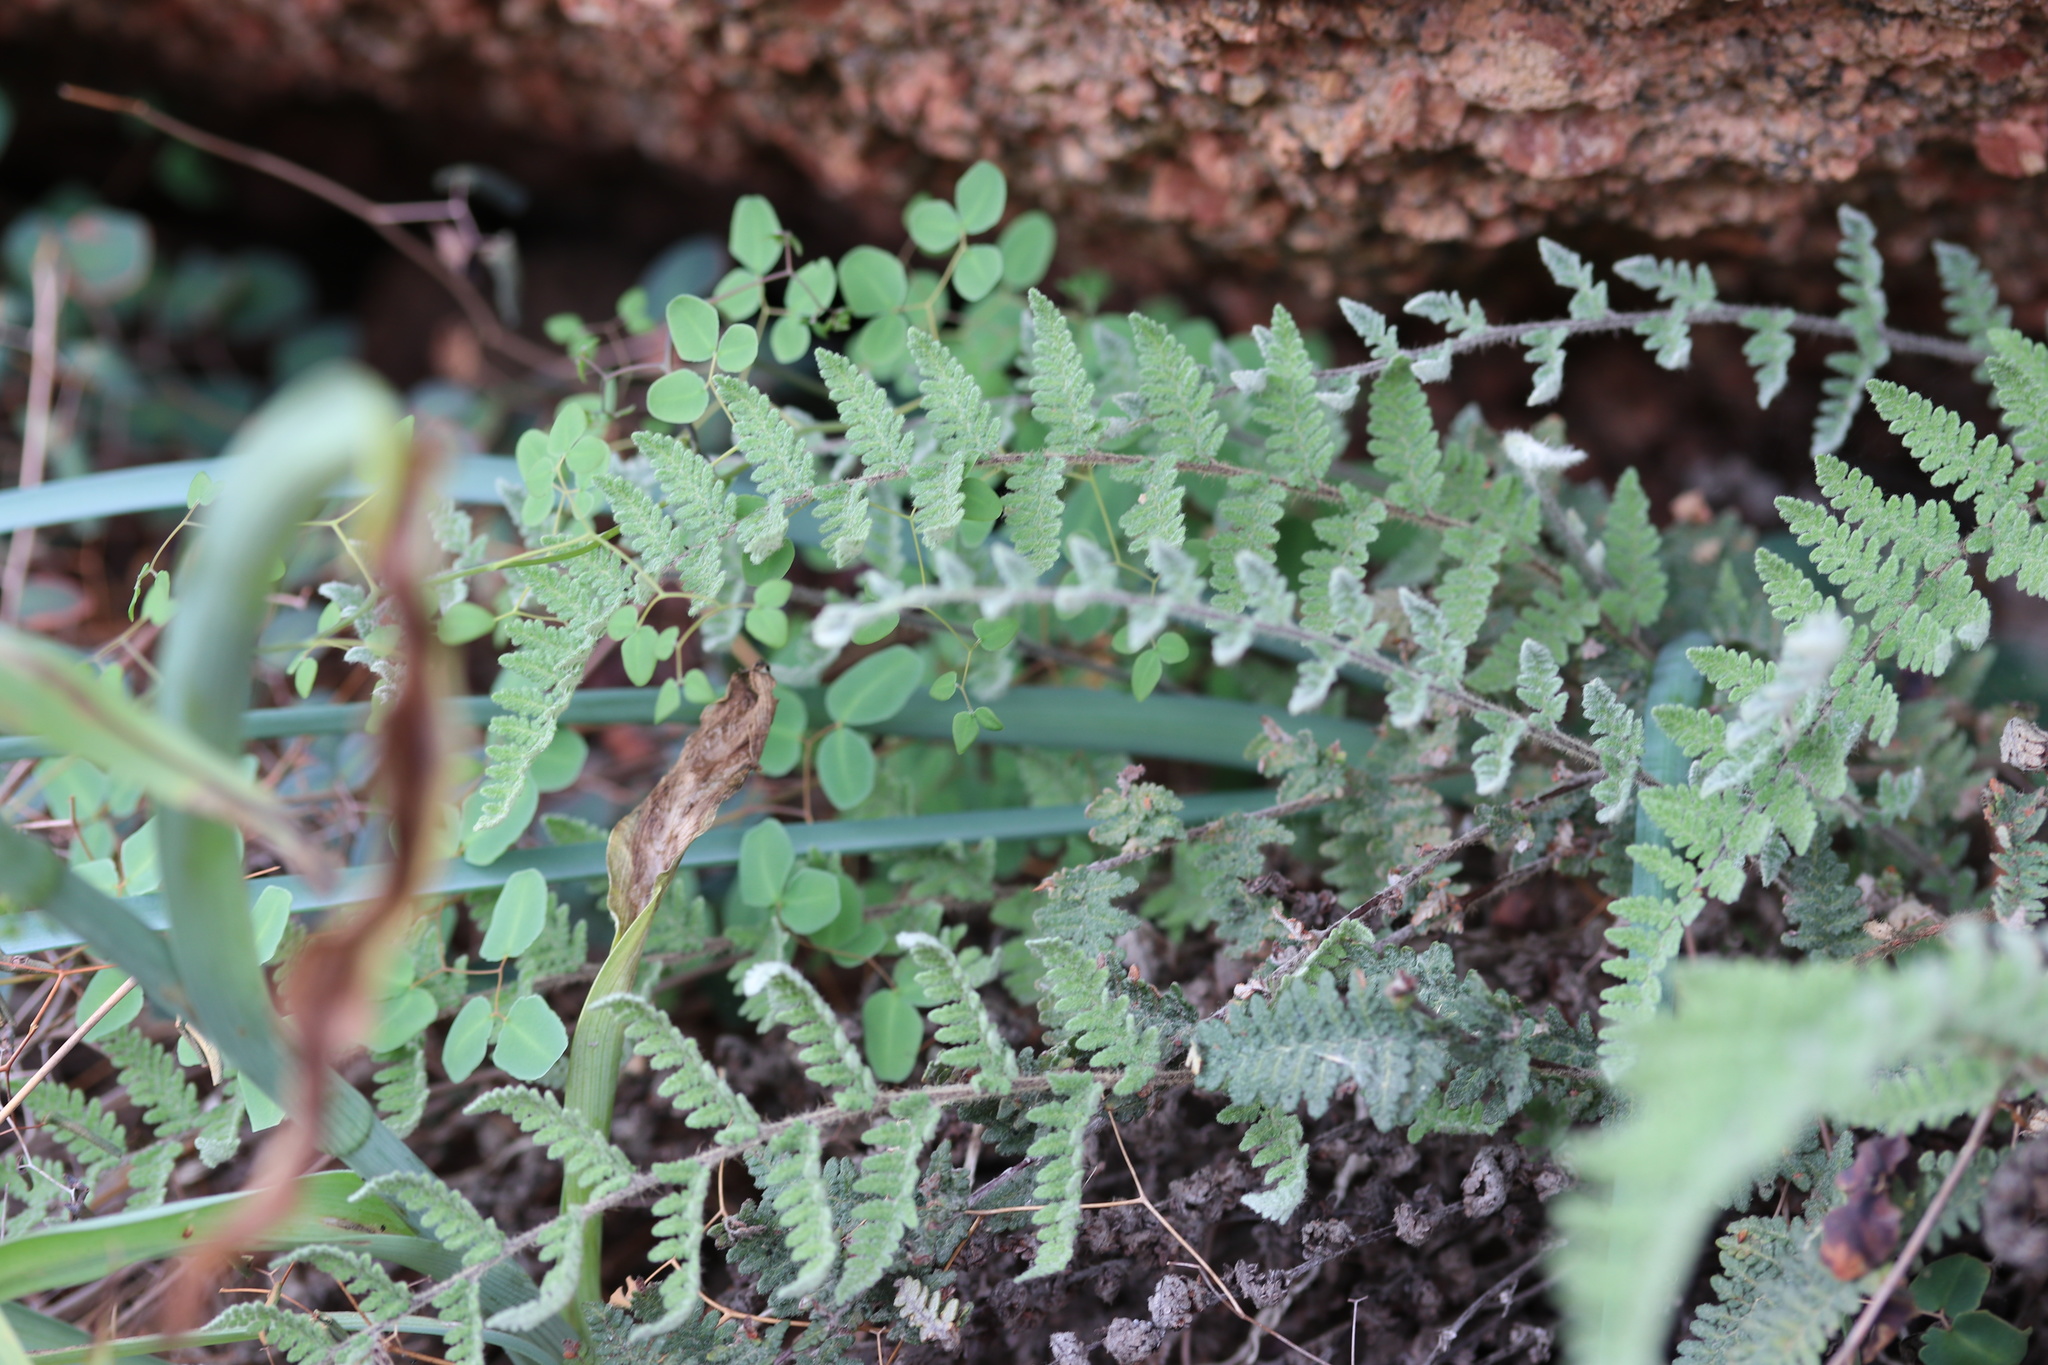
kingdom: Plantae
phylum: Tracheophyta
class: Polypodiopsida
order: Polypodiales
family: Pteridaceae
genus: Myriopteris
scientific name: Myriopteris tomentosa
